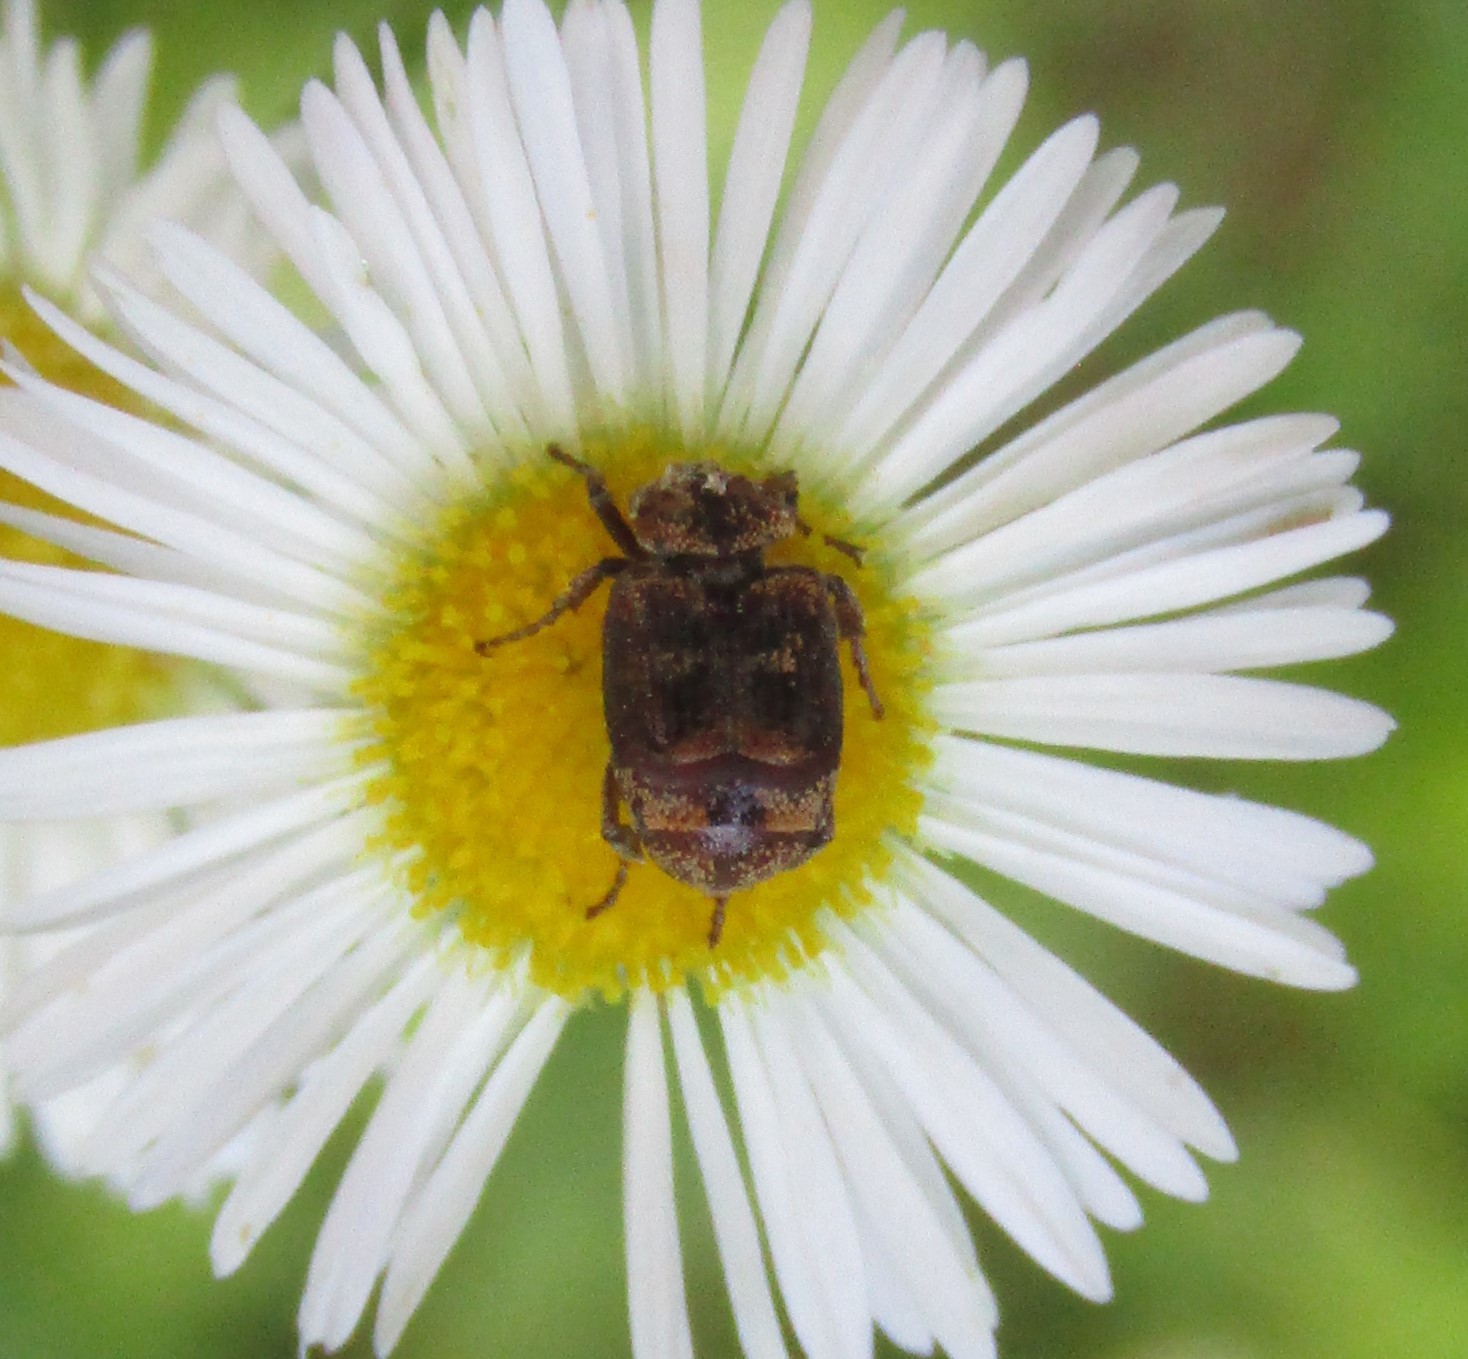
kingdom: Animalia
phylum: Arthropoda
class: Insecta
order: Coleoptera
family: Scarabaeidae
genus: Valgus
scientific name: Valgus canaliculatus
